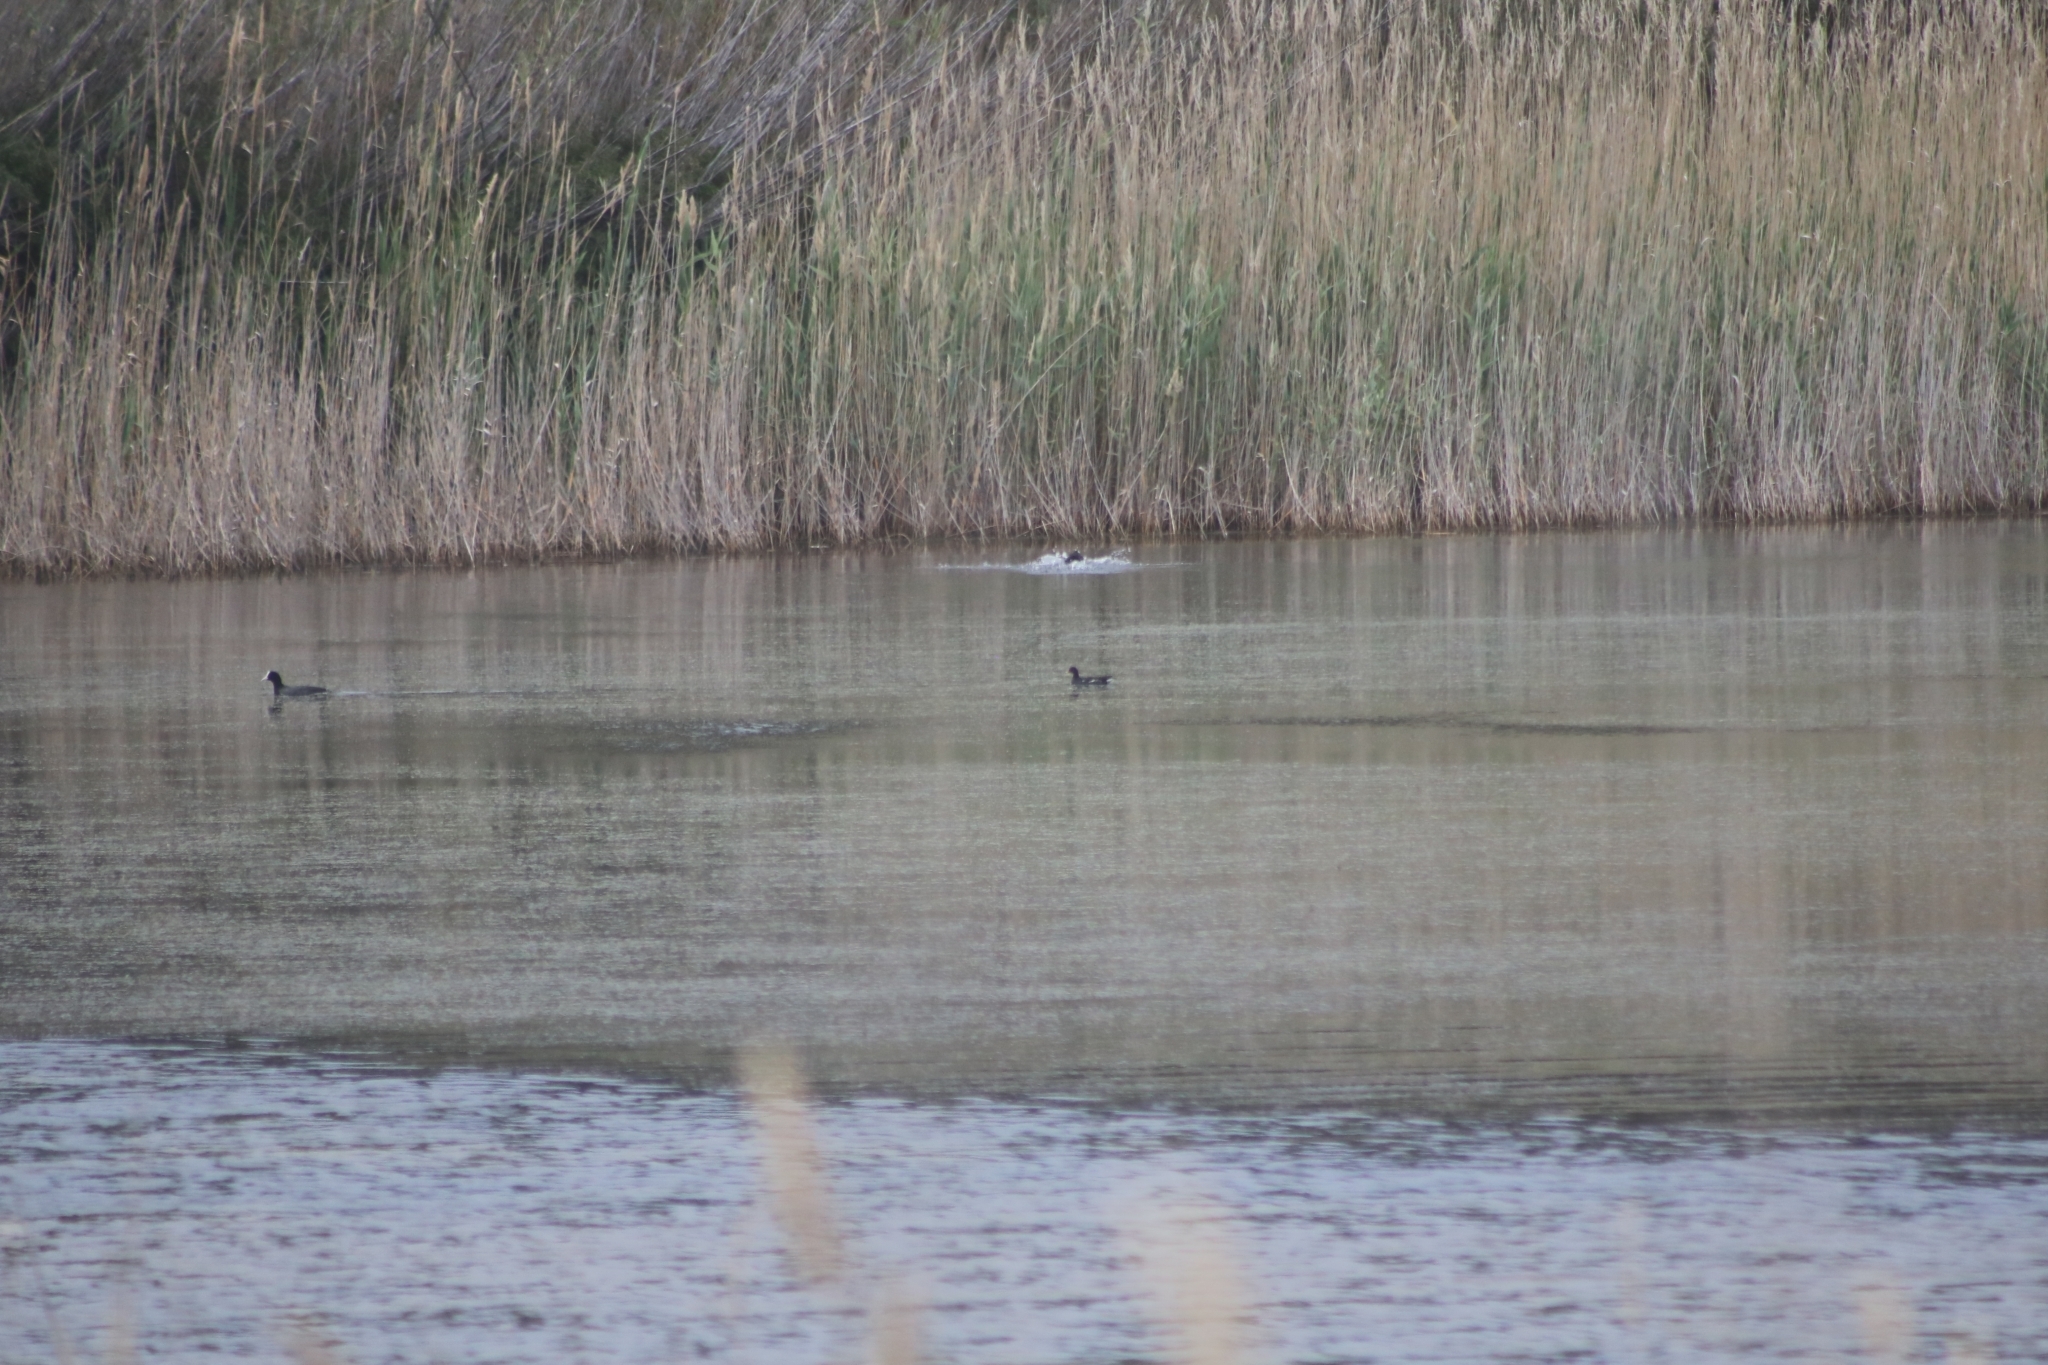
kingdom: Animalia
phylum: Chordata
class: Aves
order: Gruiformes
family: Rallidae
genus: Gallinula
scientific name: Gallinula chloropus
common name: Common moorhen
